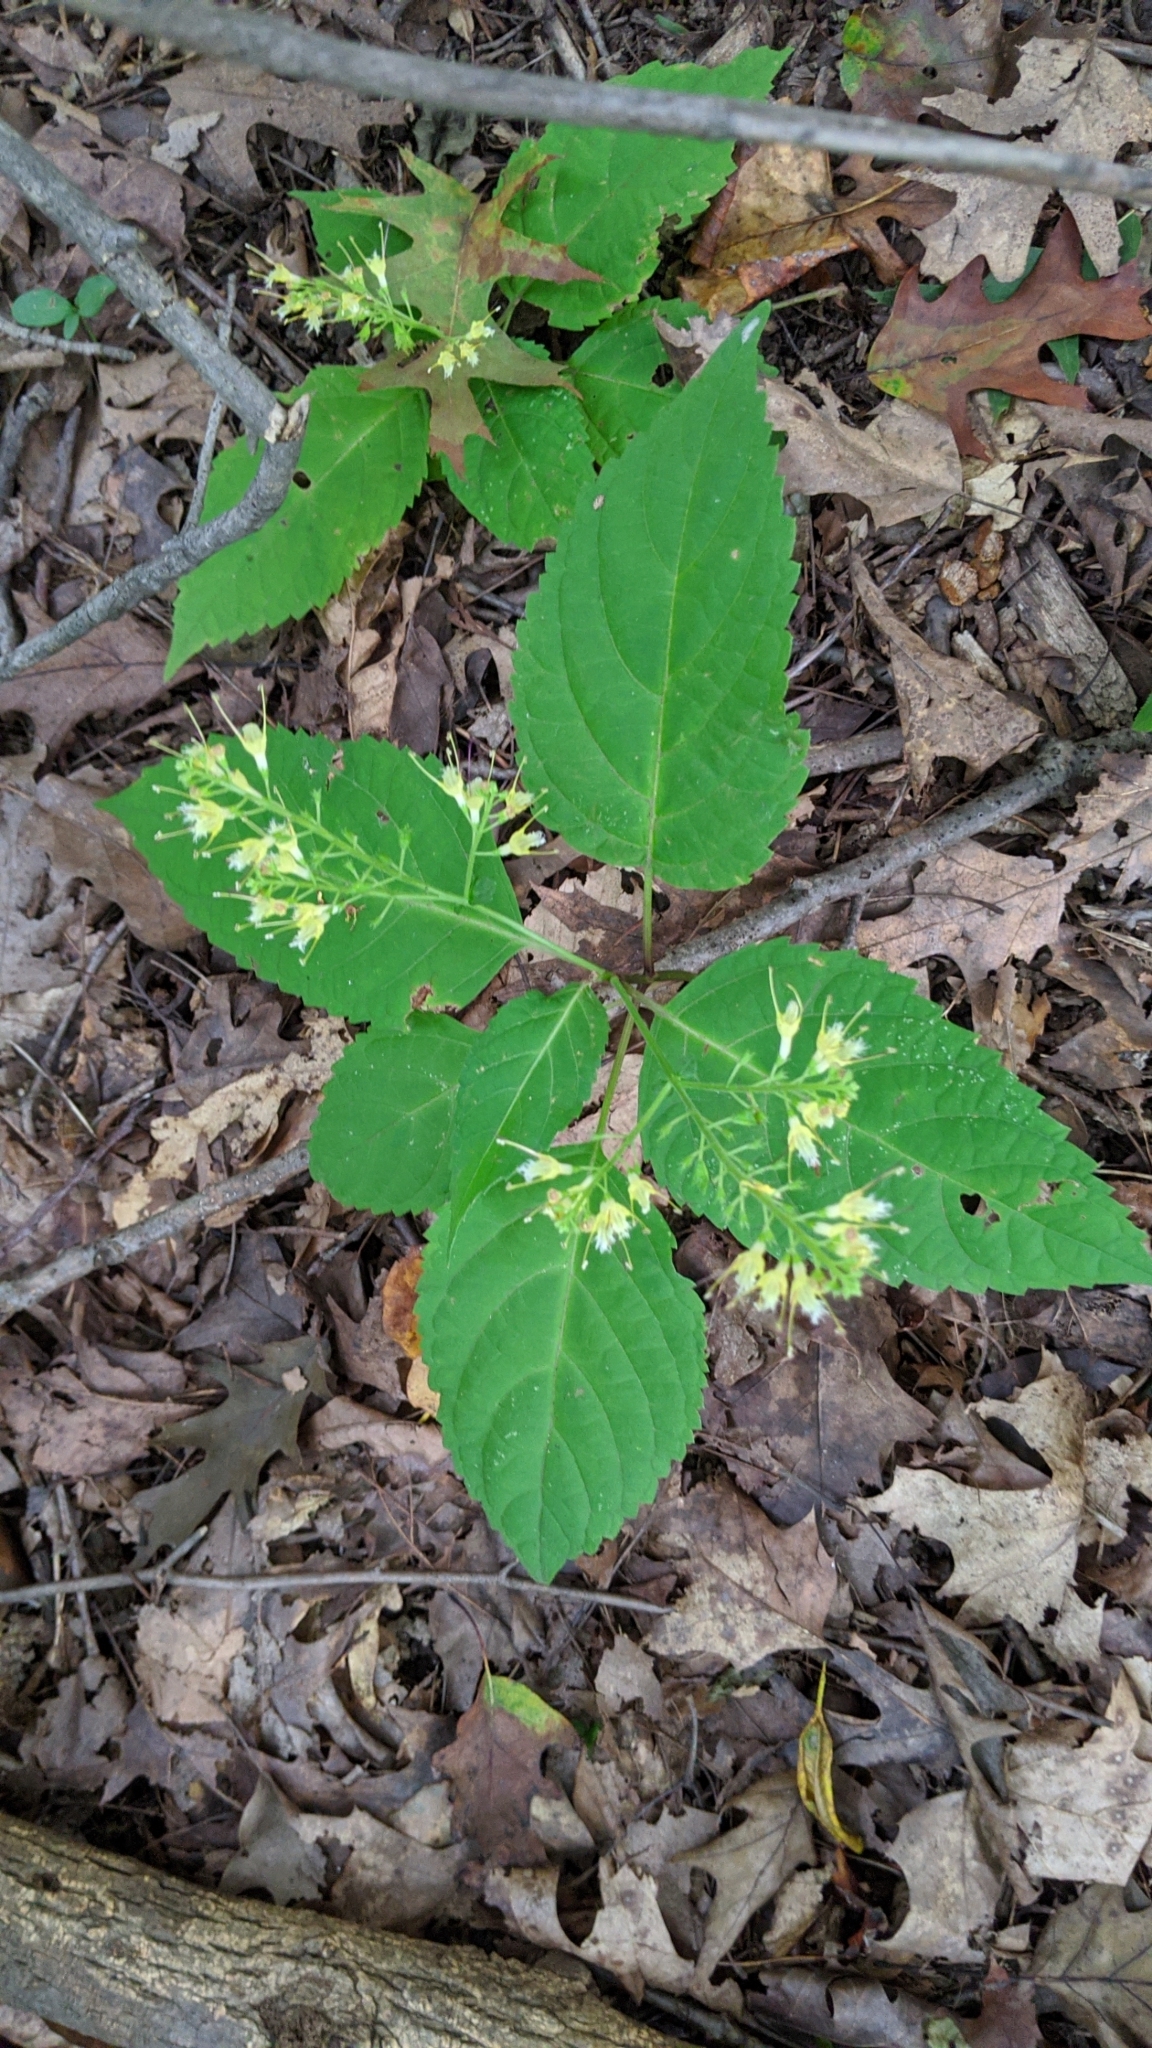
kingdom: Plantae
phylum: Tracheophyta
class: Magnoliopsida
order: Lamiales
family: Lamiaceae
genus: Collinsonia
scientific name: Collinsonia canadensis
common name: Northern horsebalm
